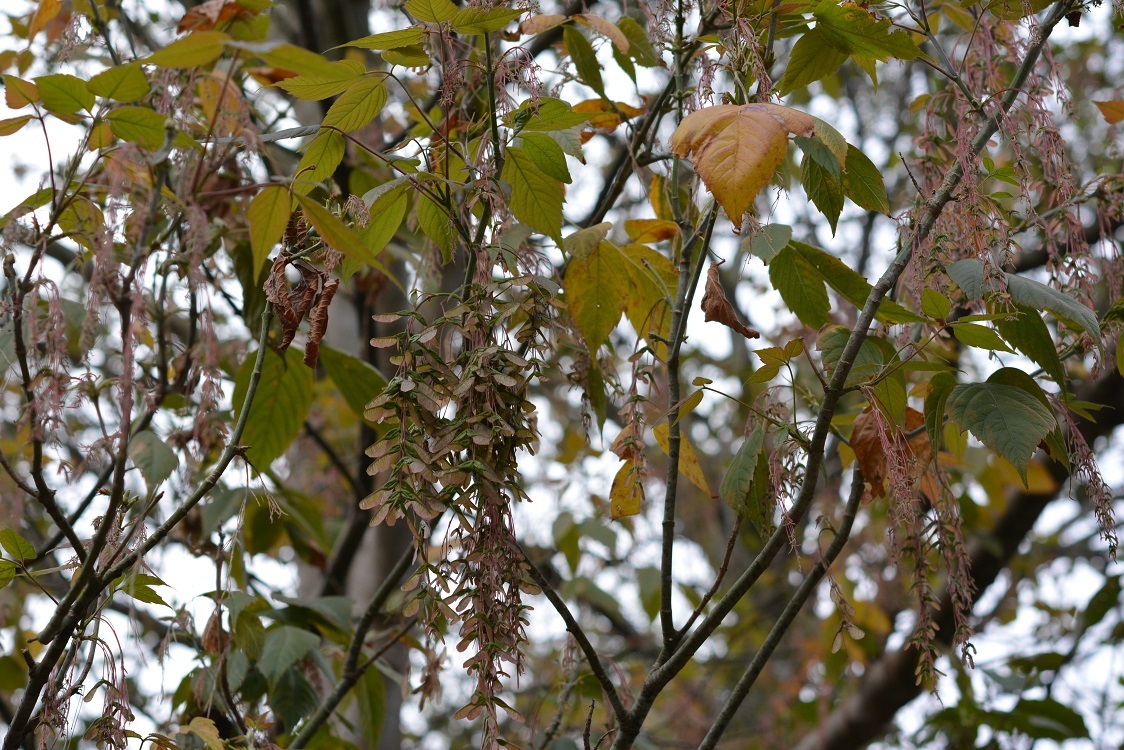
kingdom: Plantae
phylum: Tracheophyta
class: Magnoliopsida
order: Sapindales
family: Sapindaceae
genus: Acer
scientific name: Acer negundo
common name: Ashleaf maple
